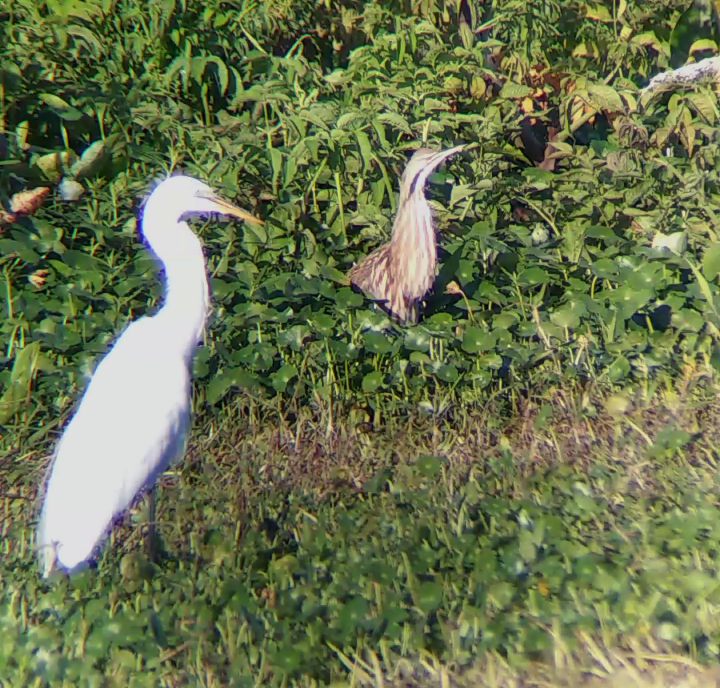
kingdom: Animalia
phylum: Chordata
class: Aves
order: Pelecaniformes
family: Ardeidae
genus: Ardea
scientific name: Ardea alba
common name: Great egret
